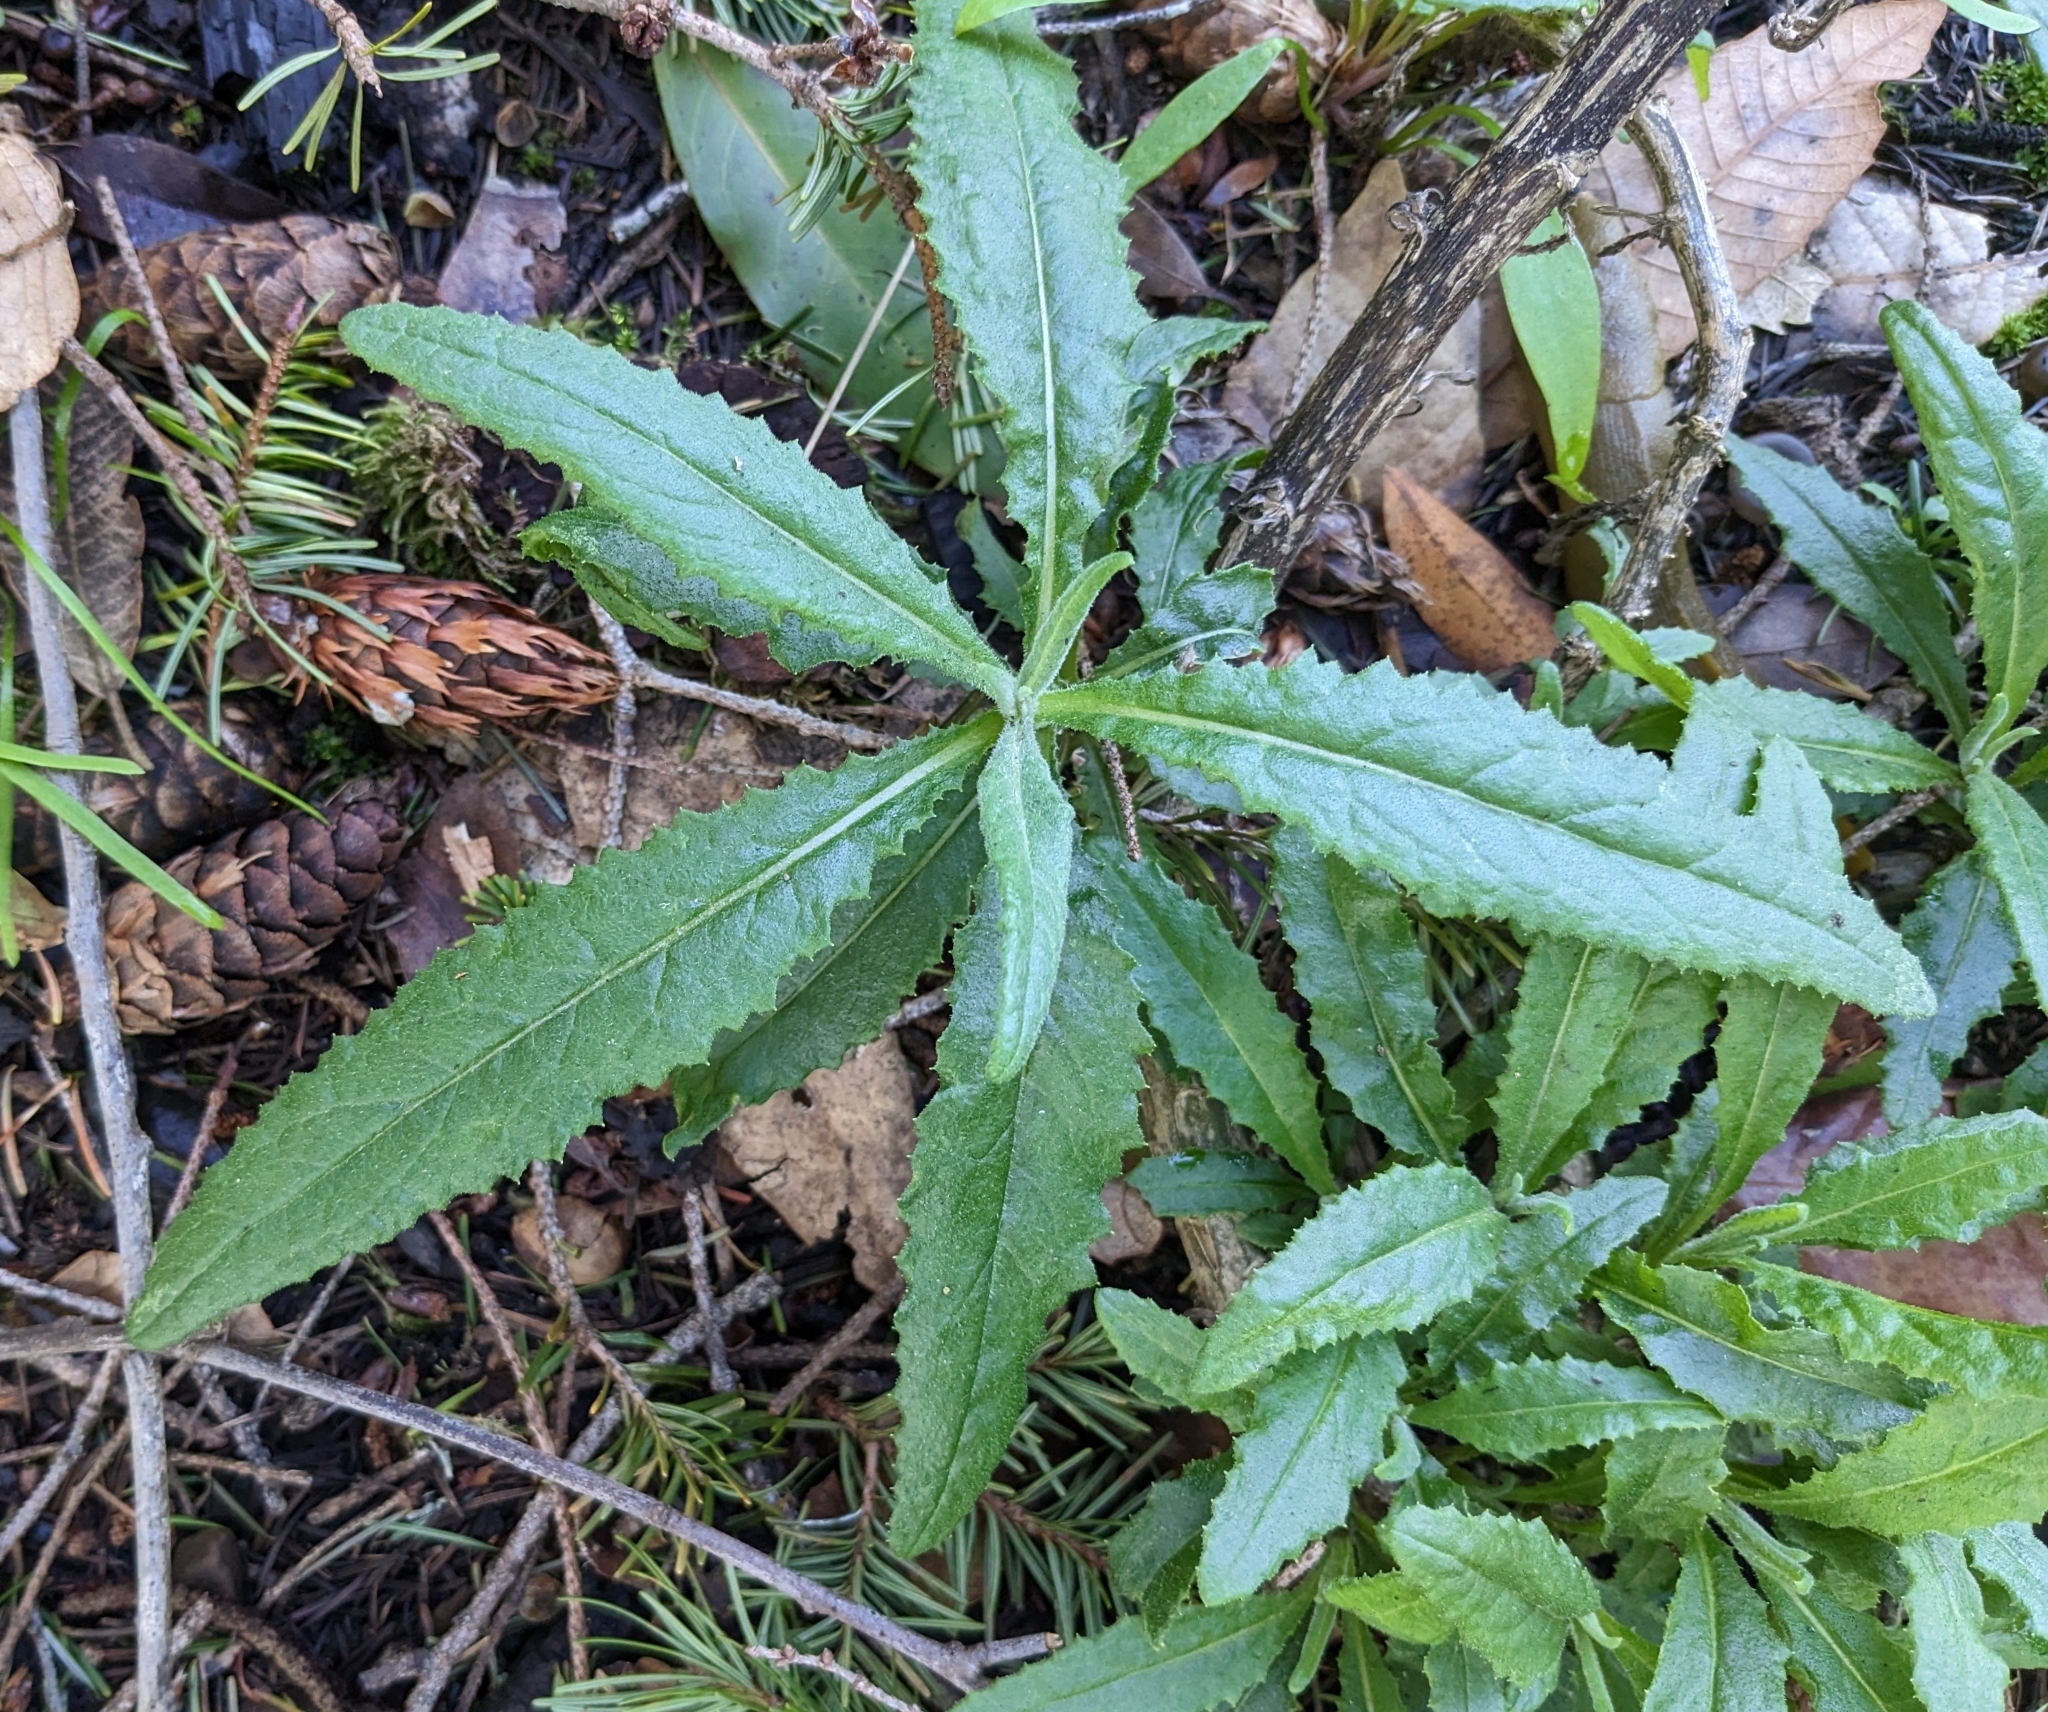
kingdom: Plantae
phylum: Tracheophyta
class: Magnoliopsida
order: Asterales
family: Asteraceae
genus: Senecio
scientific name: Senecio minimus
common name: Toothed fireweed
